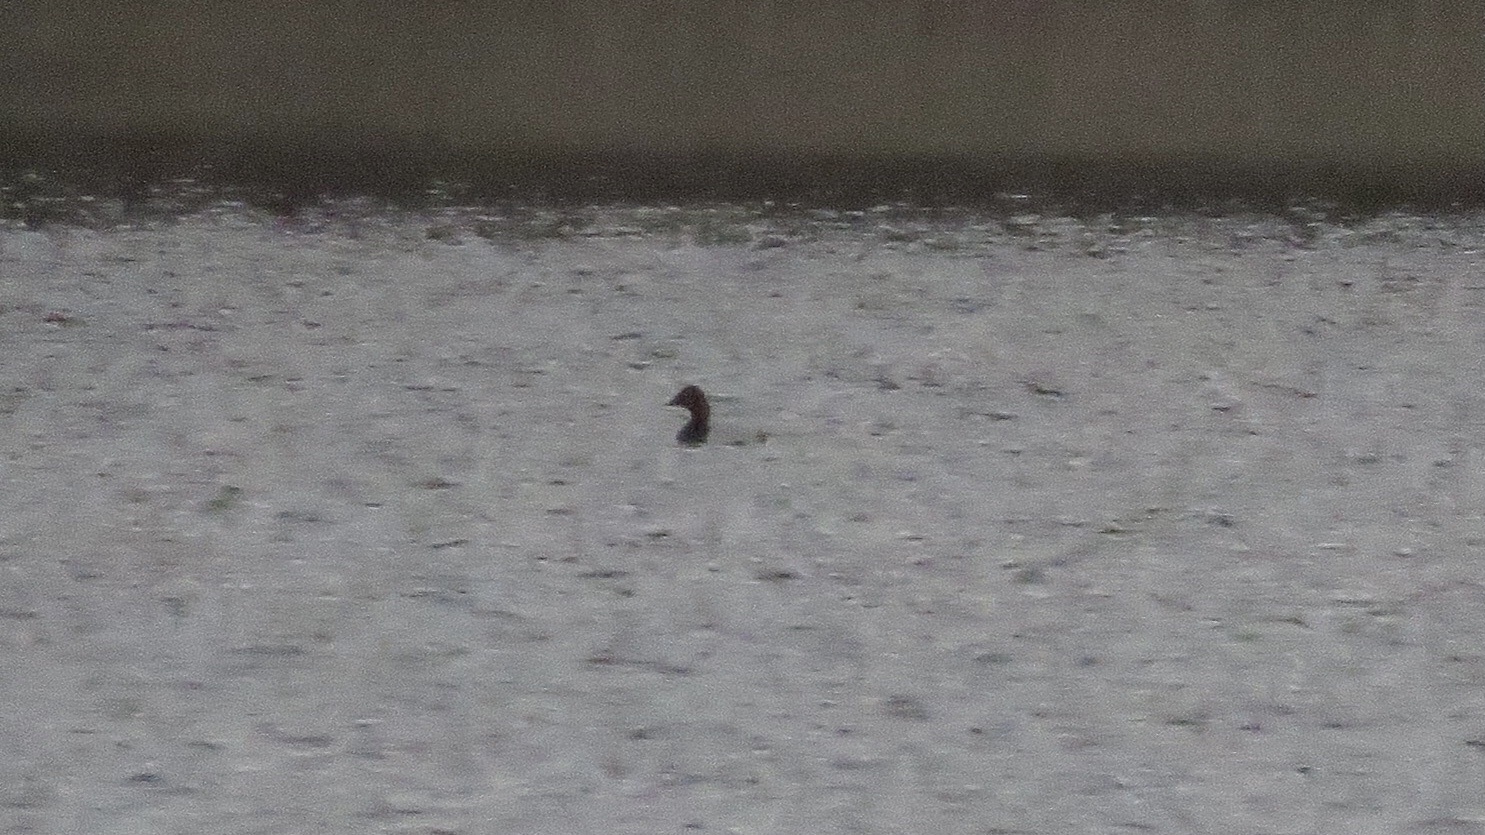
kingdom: Animalia
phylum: Chordata
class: Aves
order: Anseriformes
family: Anatidae
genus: Aythya
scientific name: Aythya valisineria
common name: Canvasback
